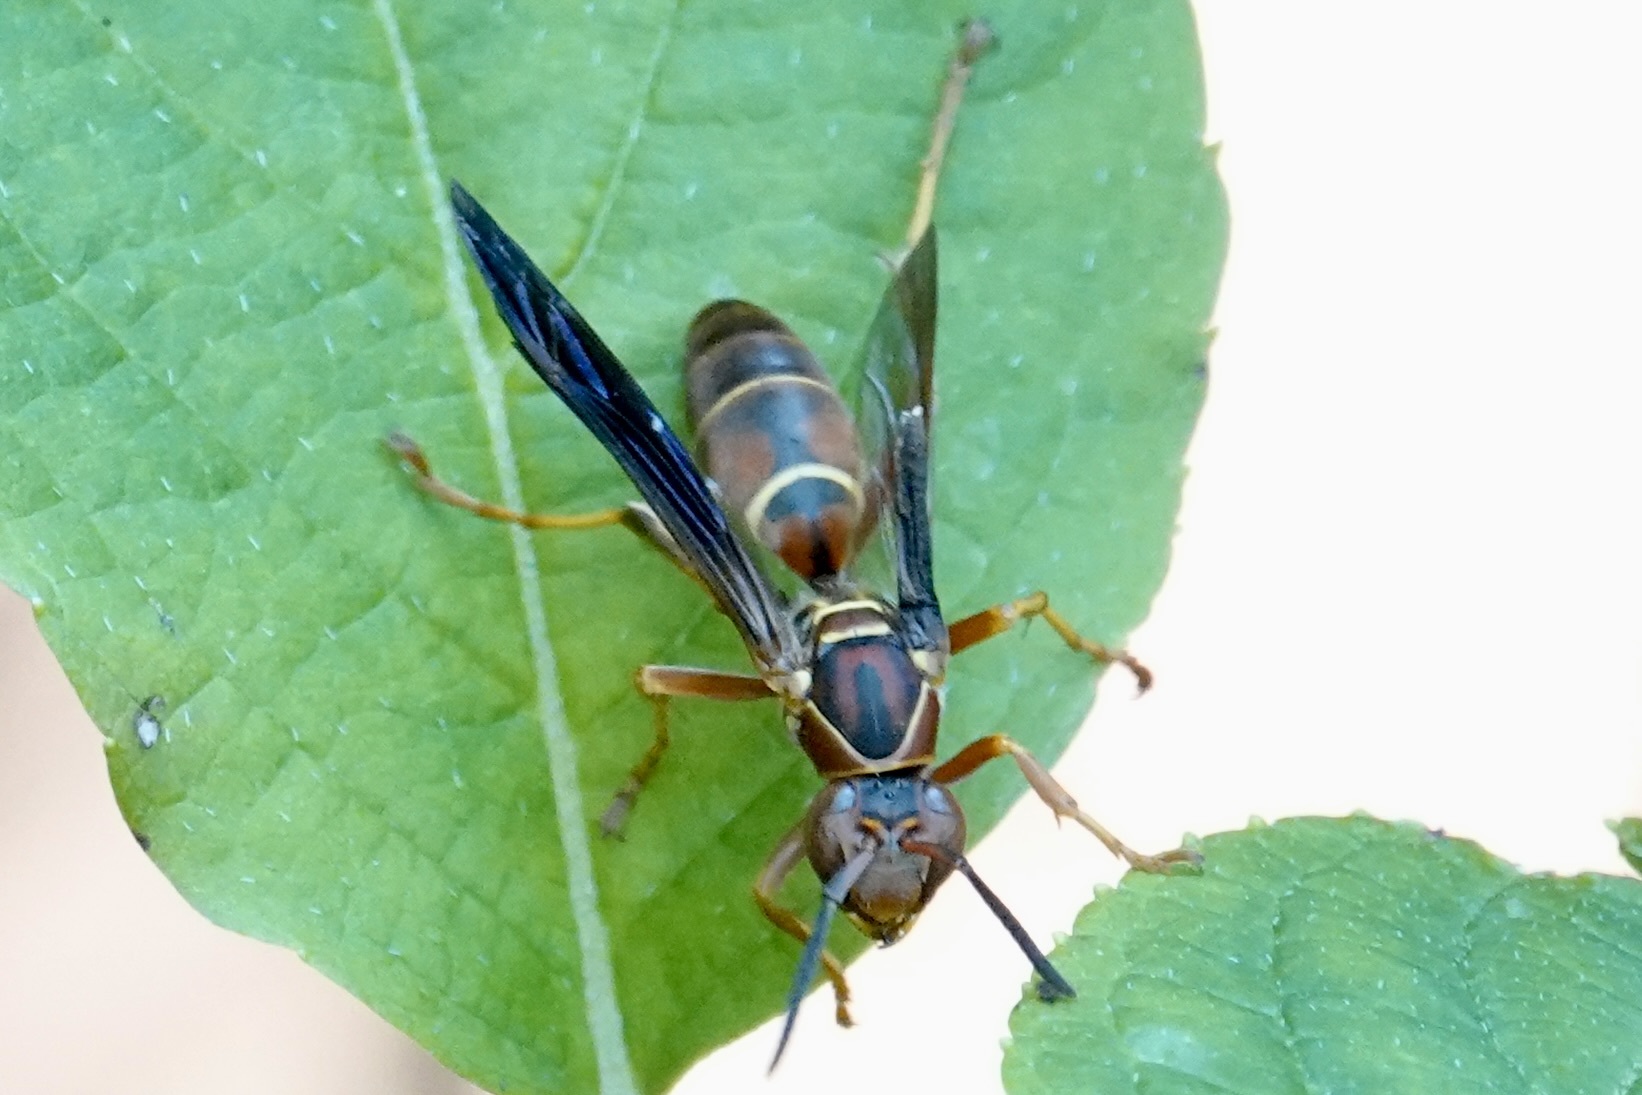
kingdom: Animalia
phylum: Arthropoda
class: Insecta
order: Hymenoptera
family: Eumenidae
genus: Polistes
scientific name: Polistes fuscatus
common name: Dark paper wasp
